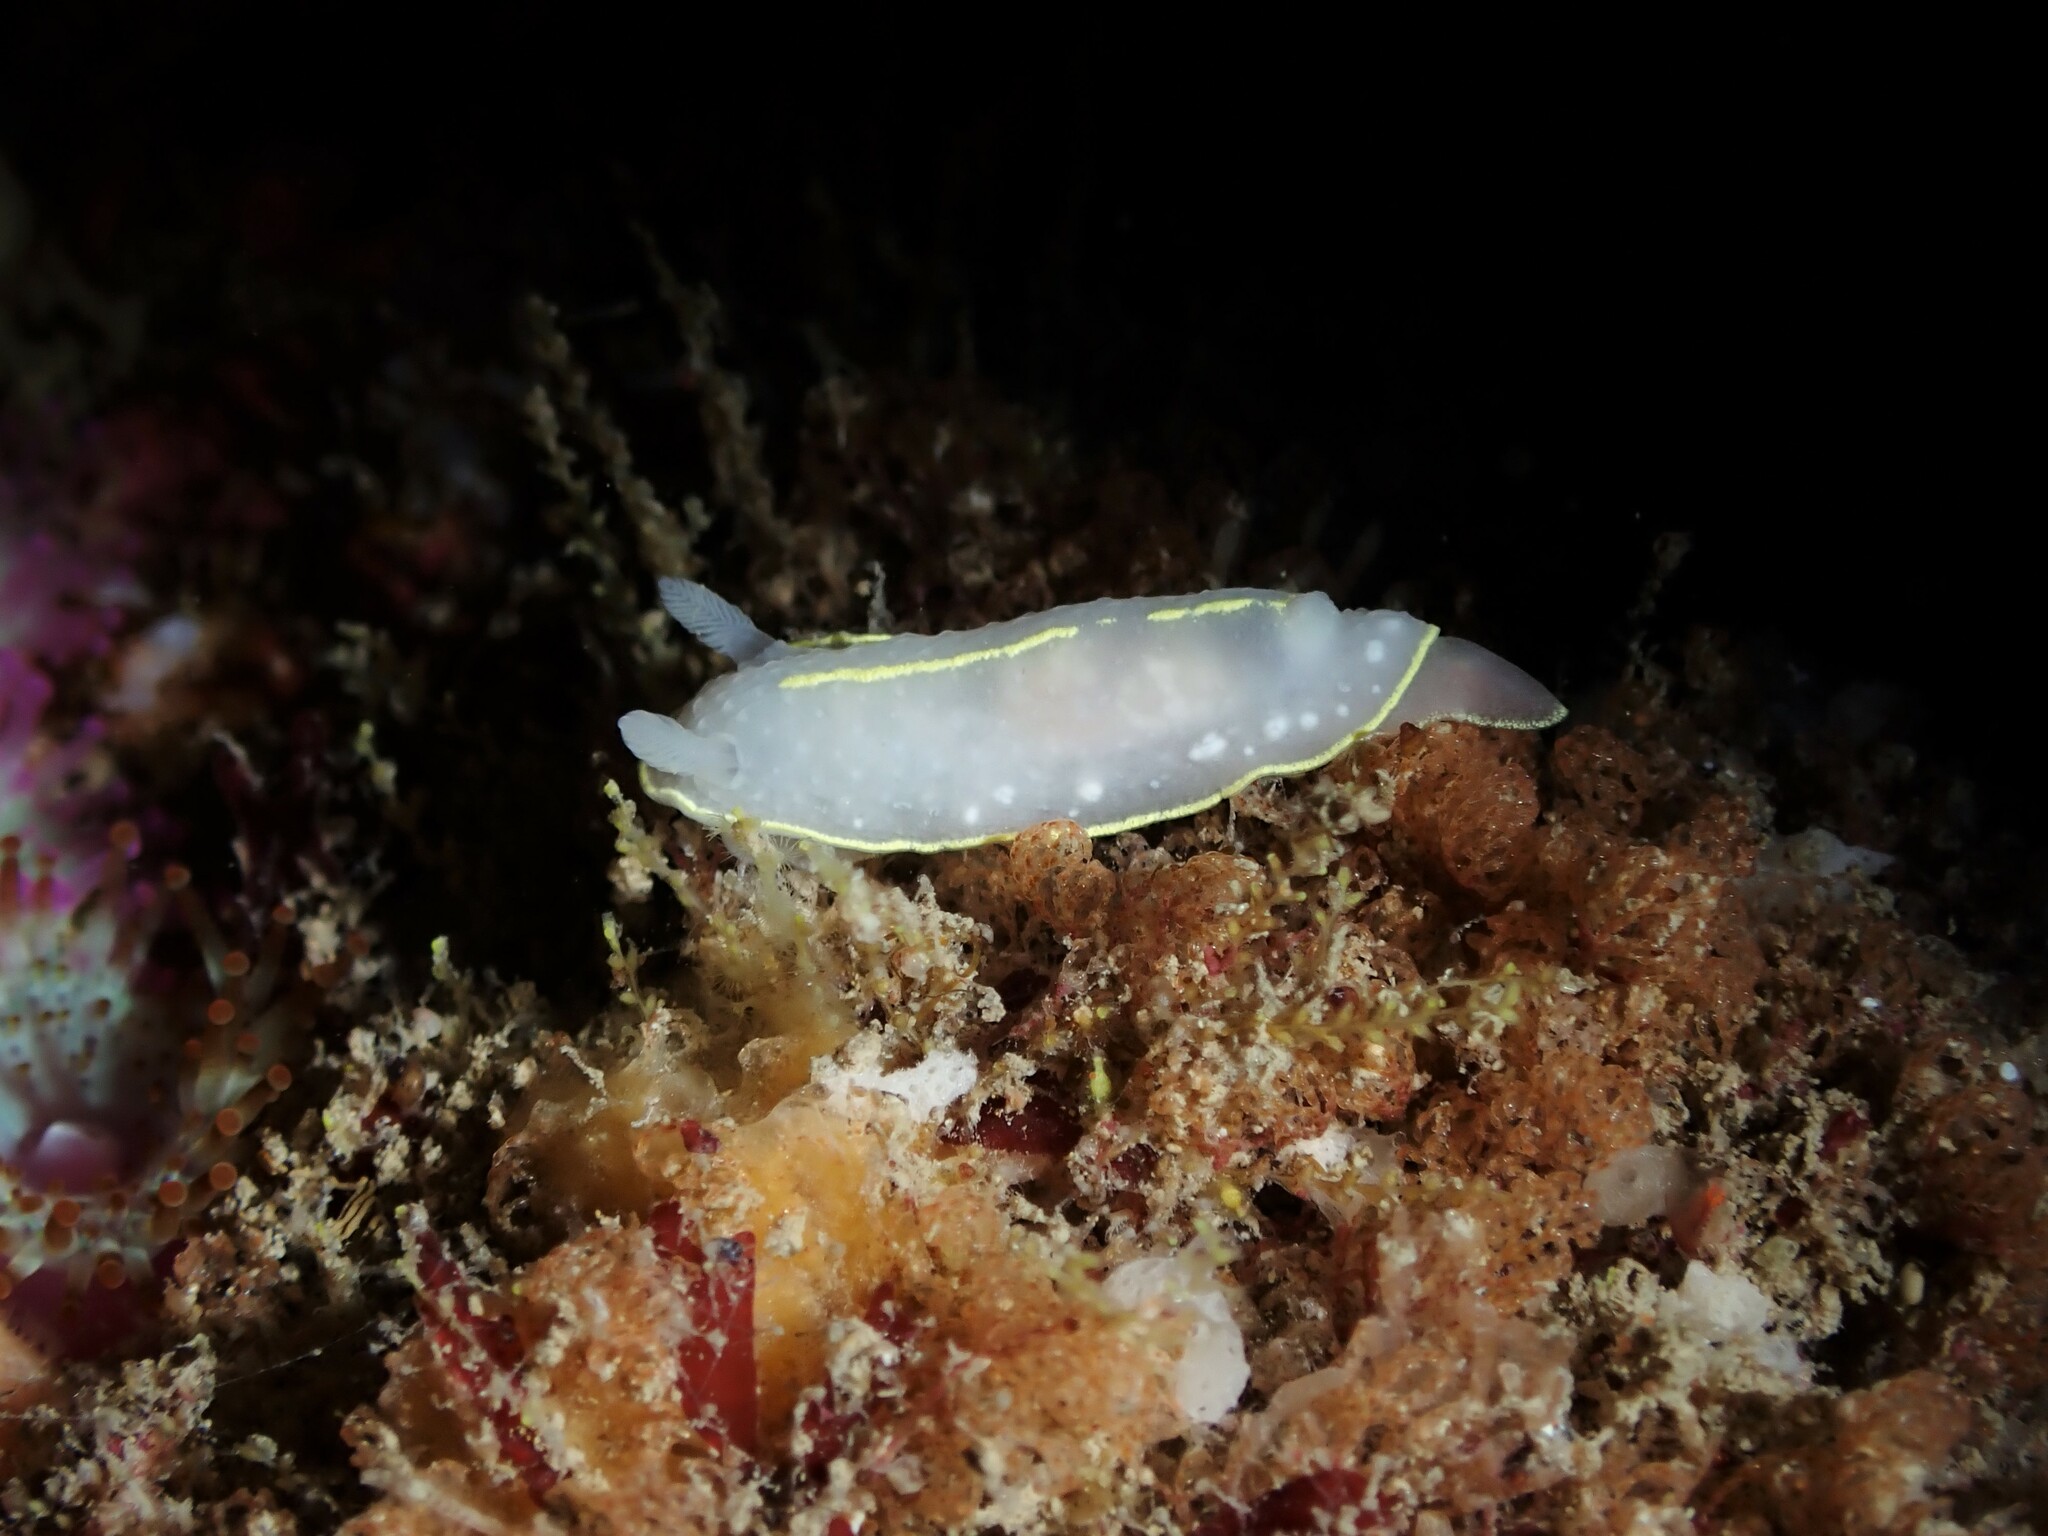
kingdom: Animalia
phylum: Mollusca
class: Gastropoda
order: Nudibranchia
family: Cadlinidae
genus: Cadlina
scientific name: Cadlina willani
